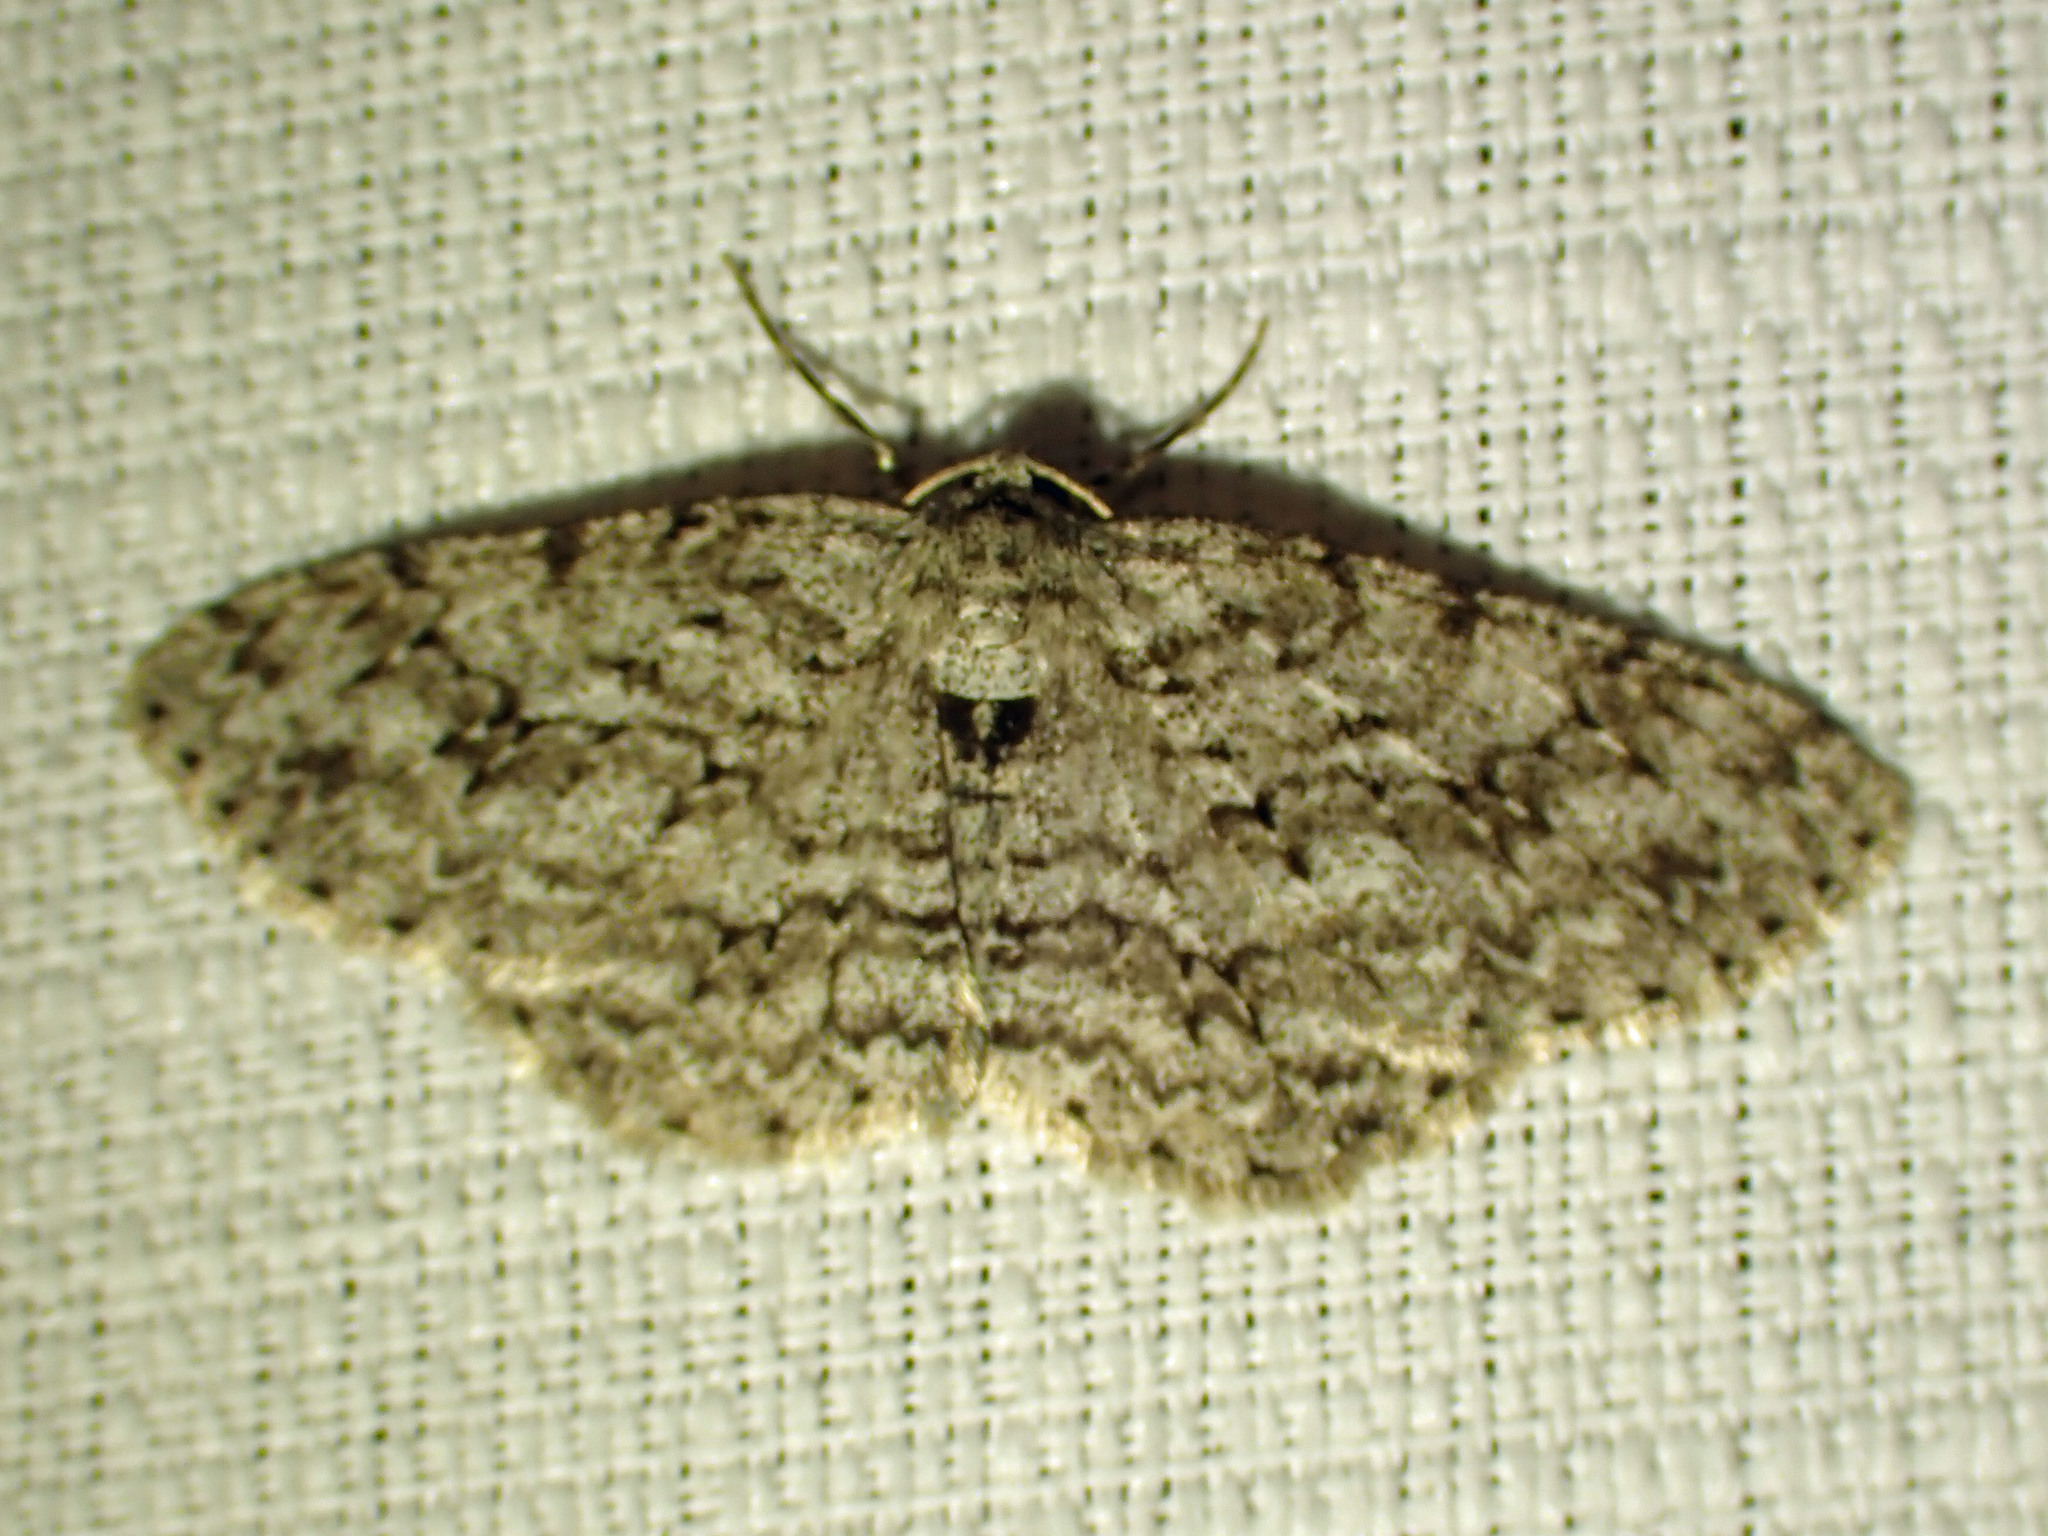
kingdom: Animalia
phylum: Arthropoda
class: Insecta
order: Lepidoptera
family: Geometridae
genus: Ectropis
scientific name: Ectropis crepuscularia
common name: Engrailed
